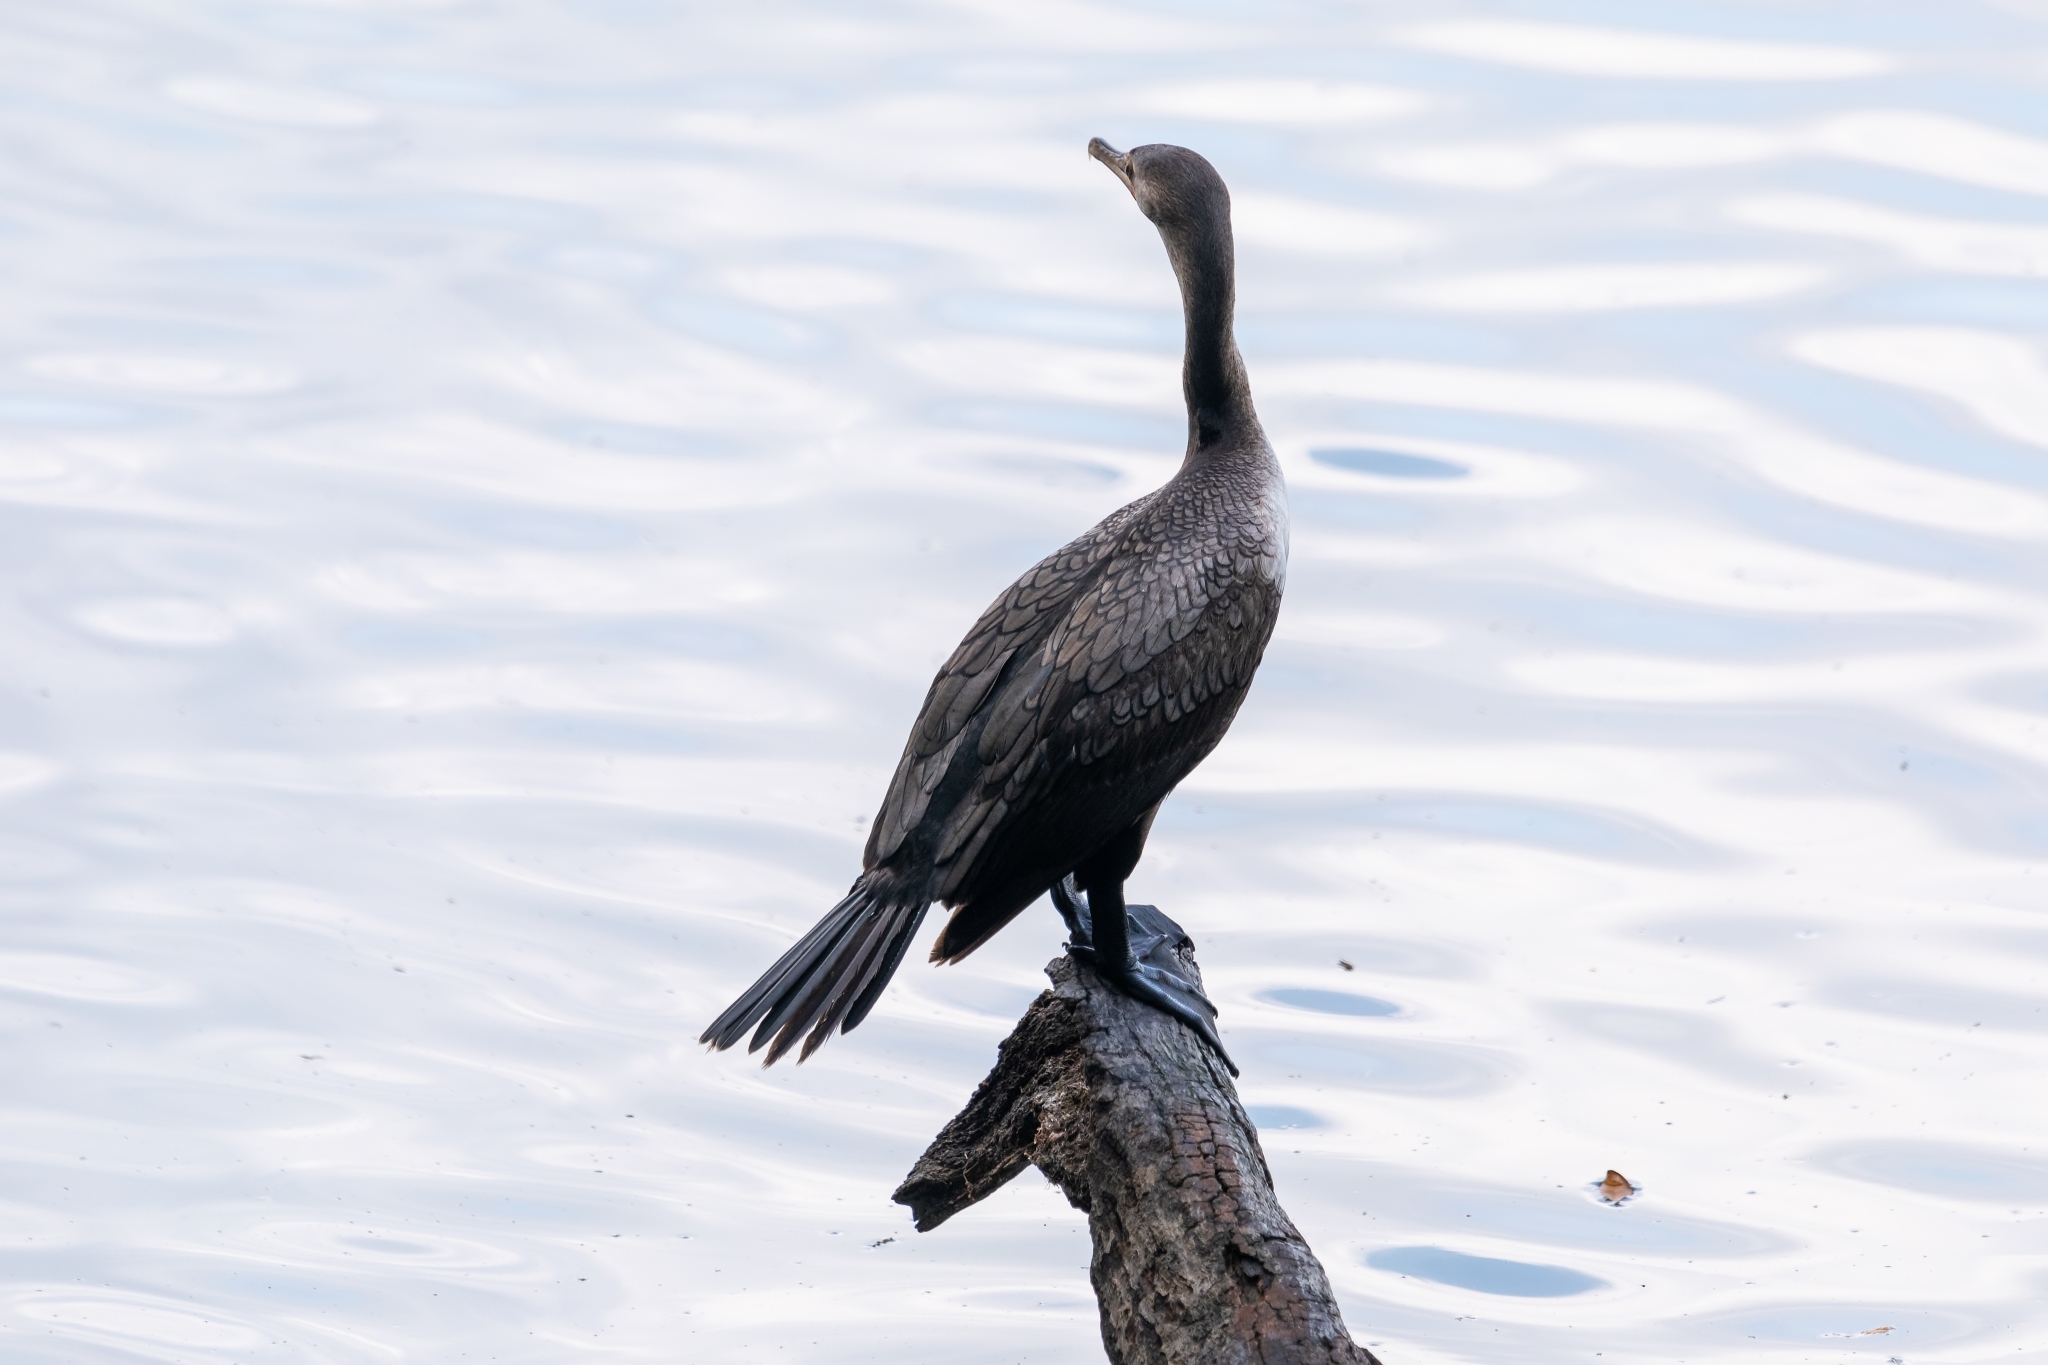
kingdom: Animalia
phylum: Chordata
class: Aves
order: Suliformes
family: Phalacrocoracidae
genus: Phalacrocorax
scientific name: Phalacrocorax auritus
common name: Double-crested cormorant
